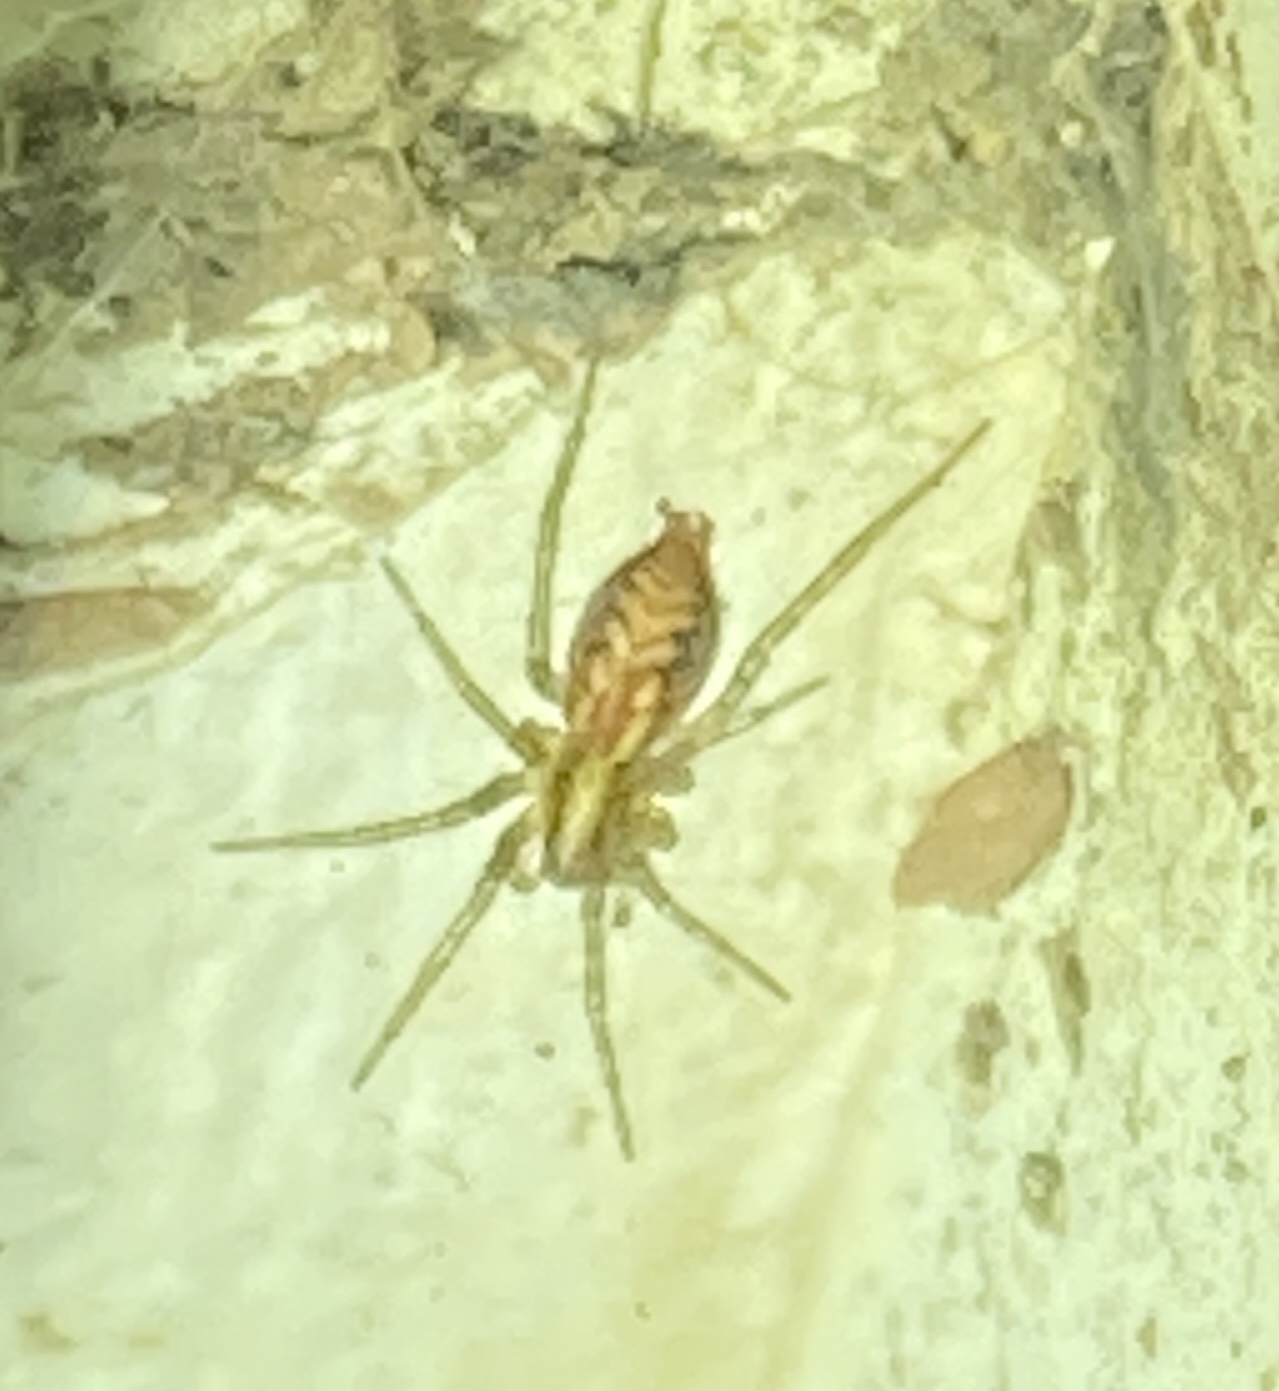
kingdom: Animalia
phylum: Arthropoda
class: Arachnida
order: Araneae
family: Agelenidae
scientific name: Agelenidae
